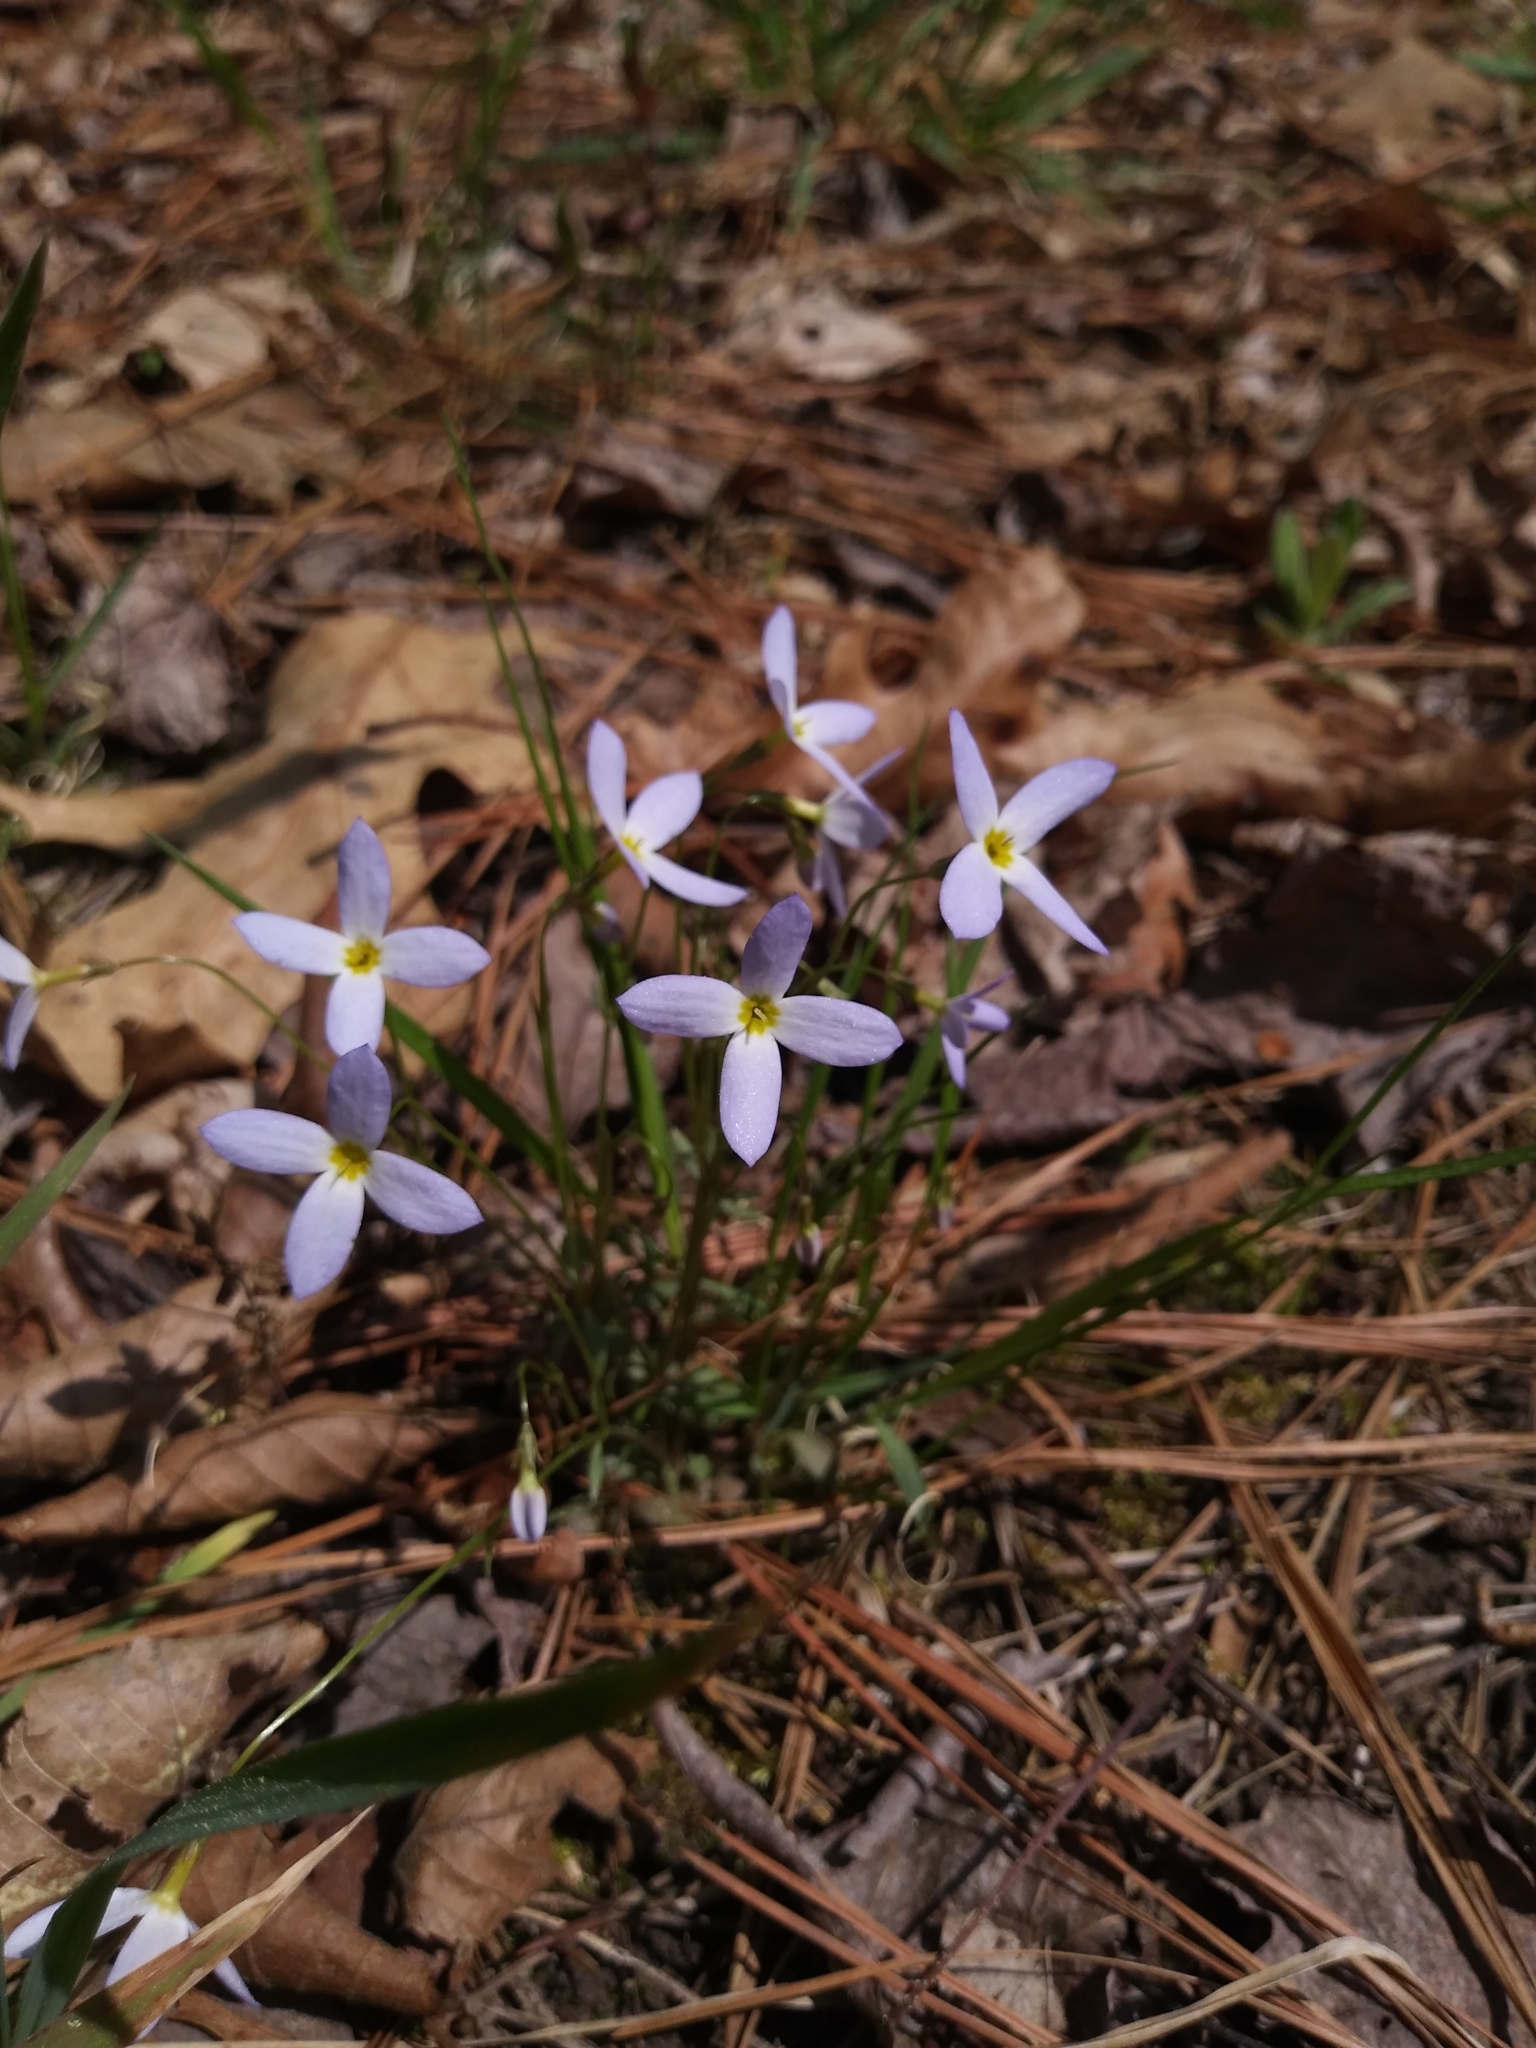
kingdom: Plantae
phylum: Tracheophyta
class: Magnoliopsida
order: Gentianales
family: Rubiaceae
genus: Houstonia
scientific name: Houstonia caerulea
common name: Bluets
